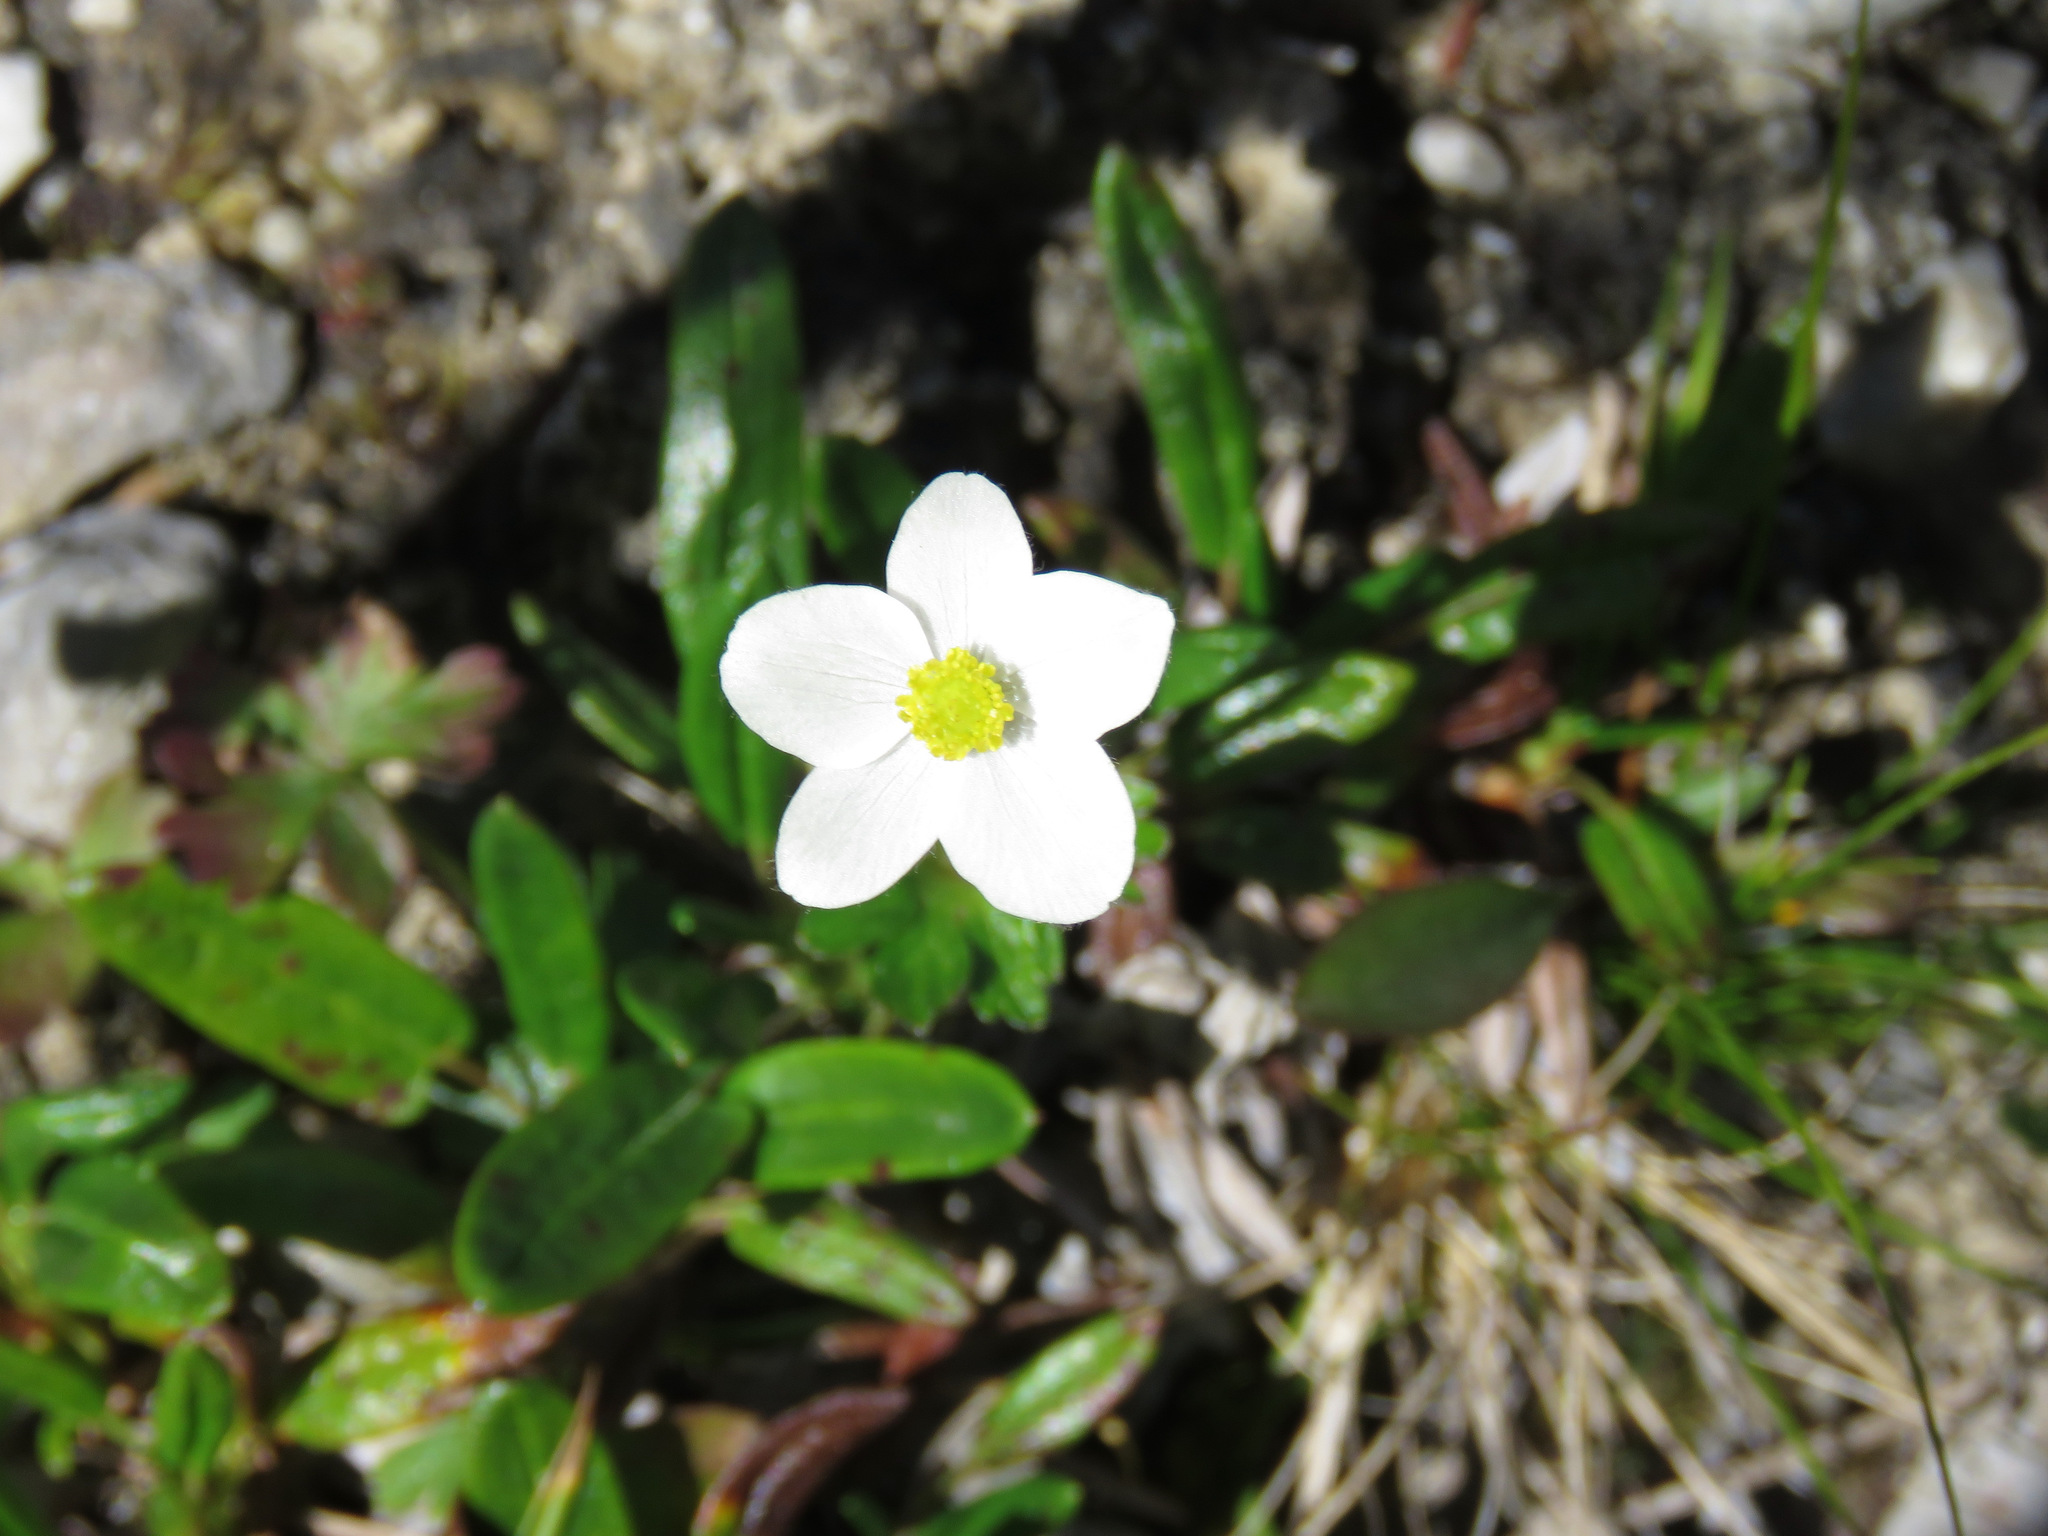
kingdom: Plantae
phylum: Tracheophyta
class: Magnoliopsida
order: Rosales
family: Rosaceae
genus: Dryas
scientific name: Dryas integrifolia
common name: Entire-leaved mountain avens
